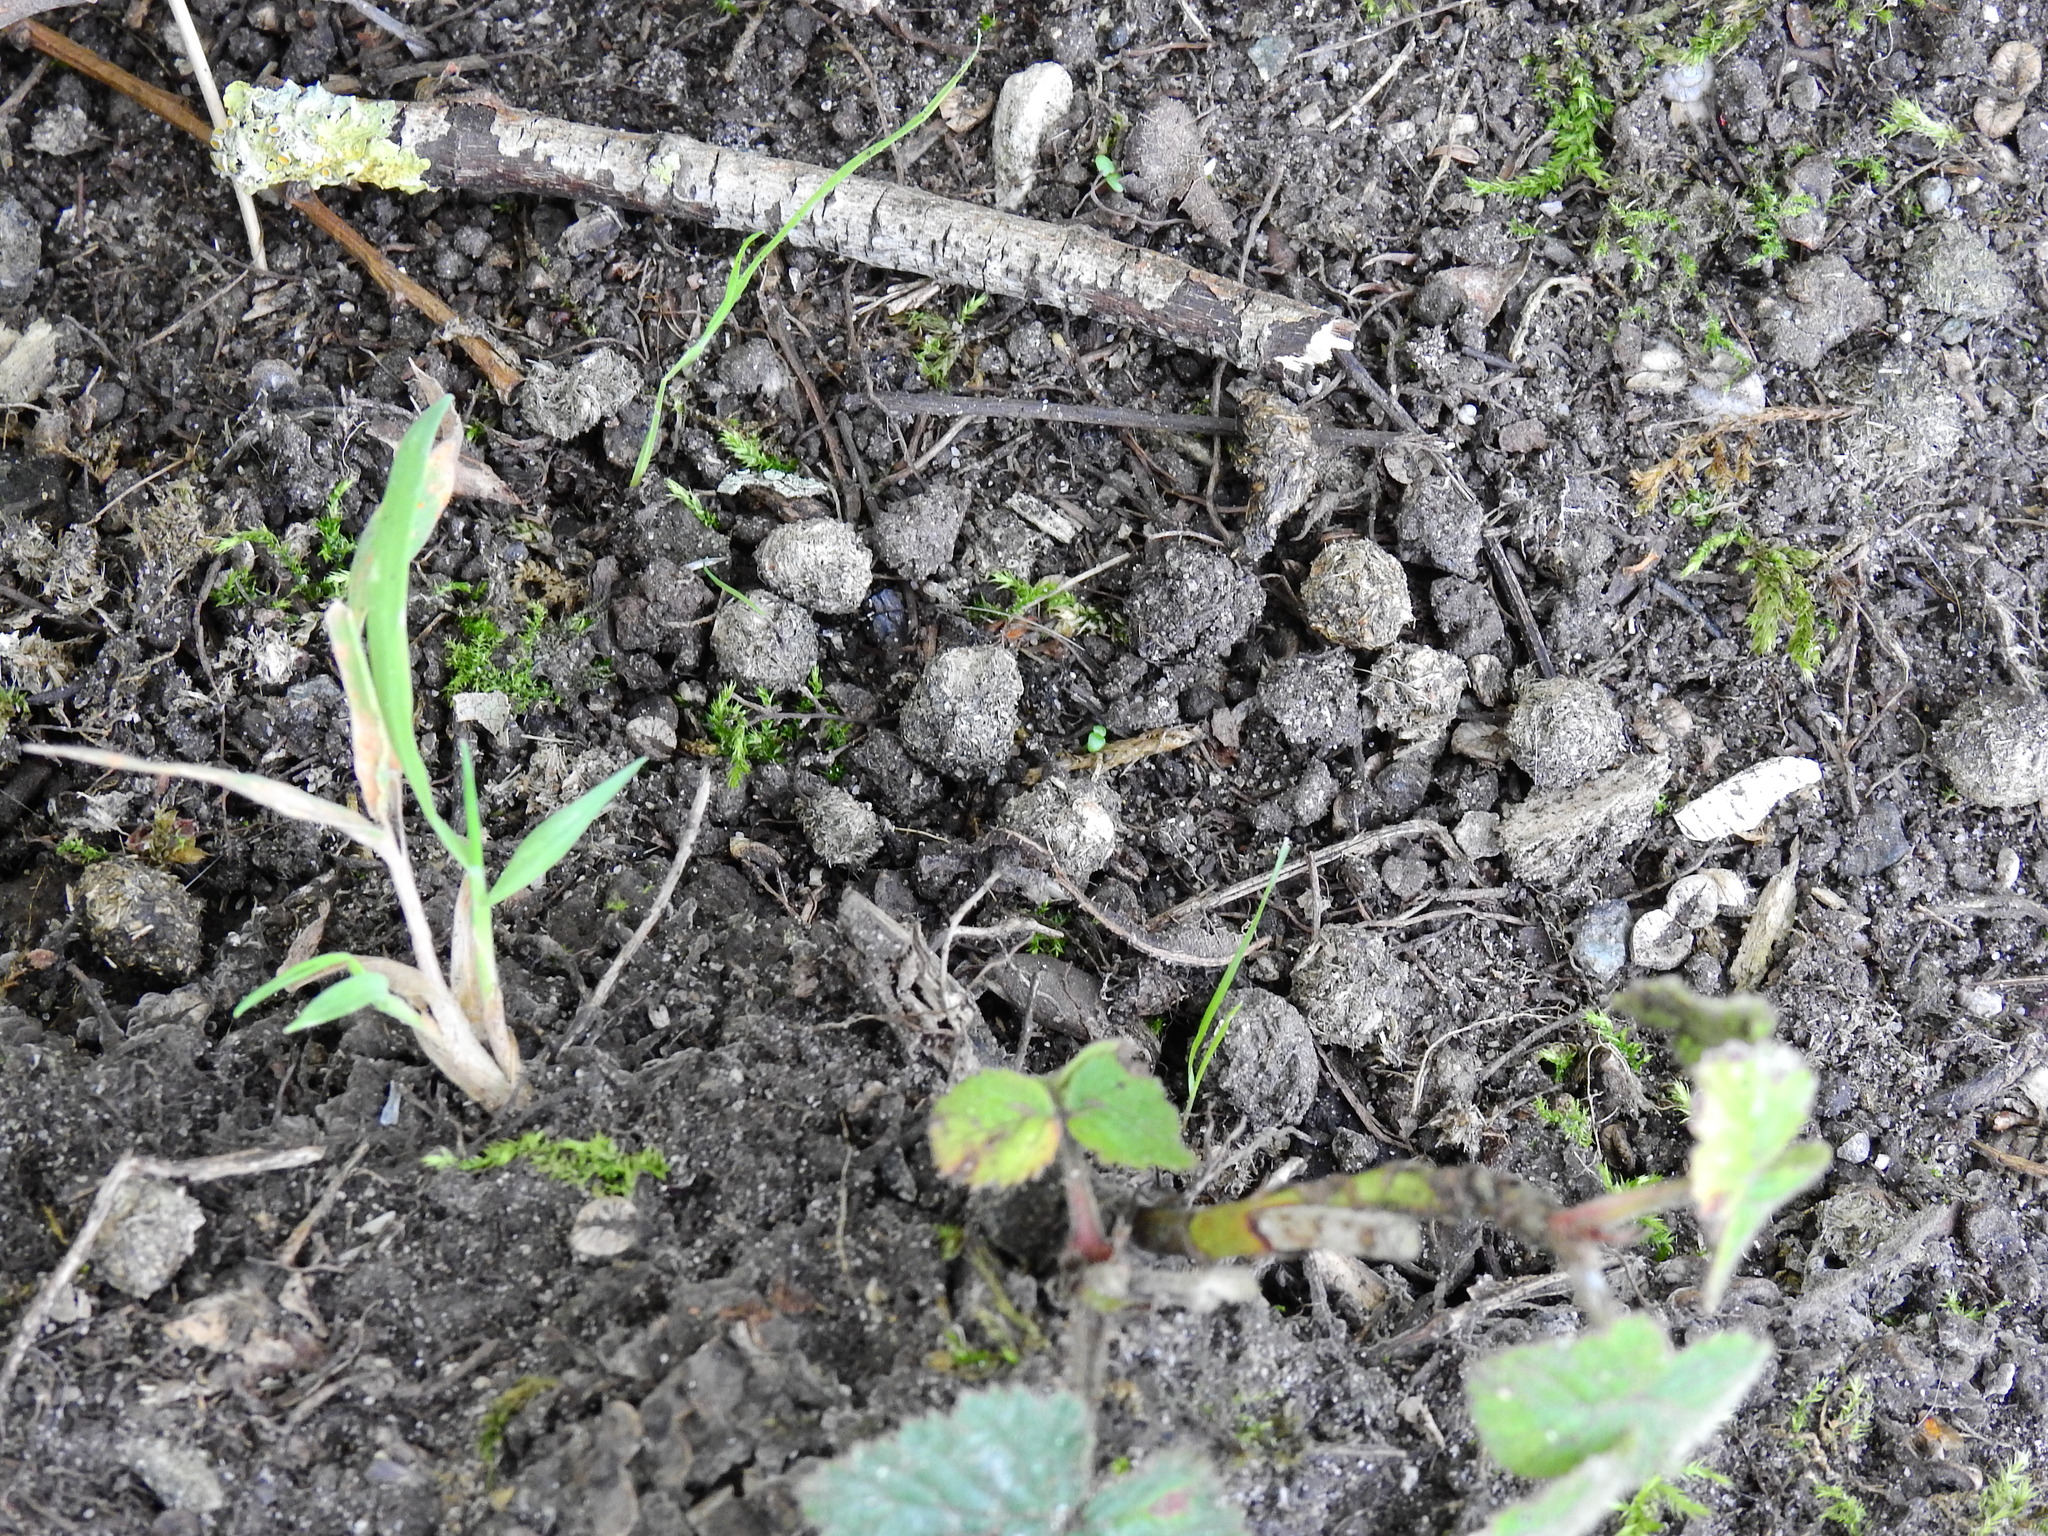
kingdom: Animalia
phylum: Chordata
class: Mammalia
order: Lagomorpha
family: Leporidae
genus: Oryctolagus
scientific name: Oryctolagus cuniculus
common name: European rabbit
